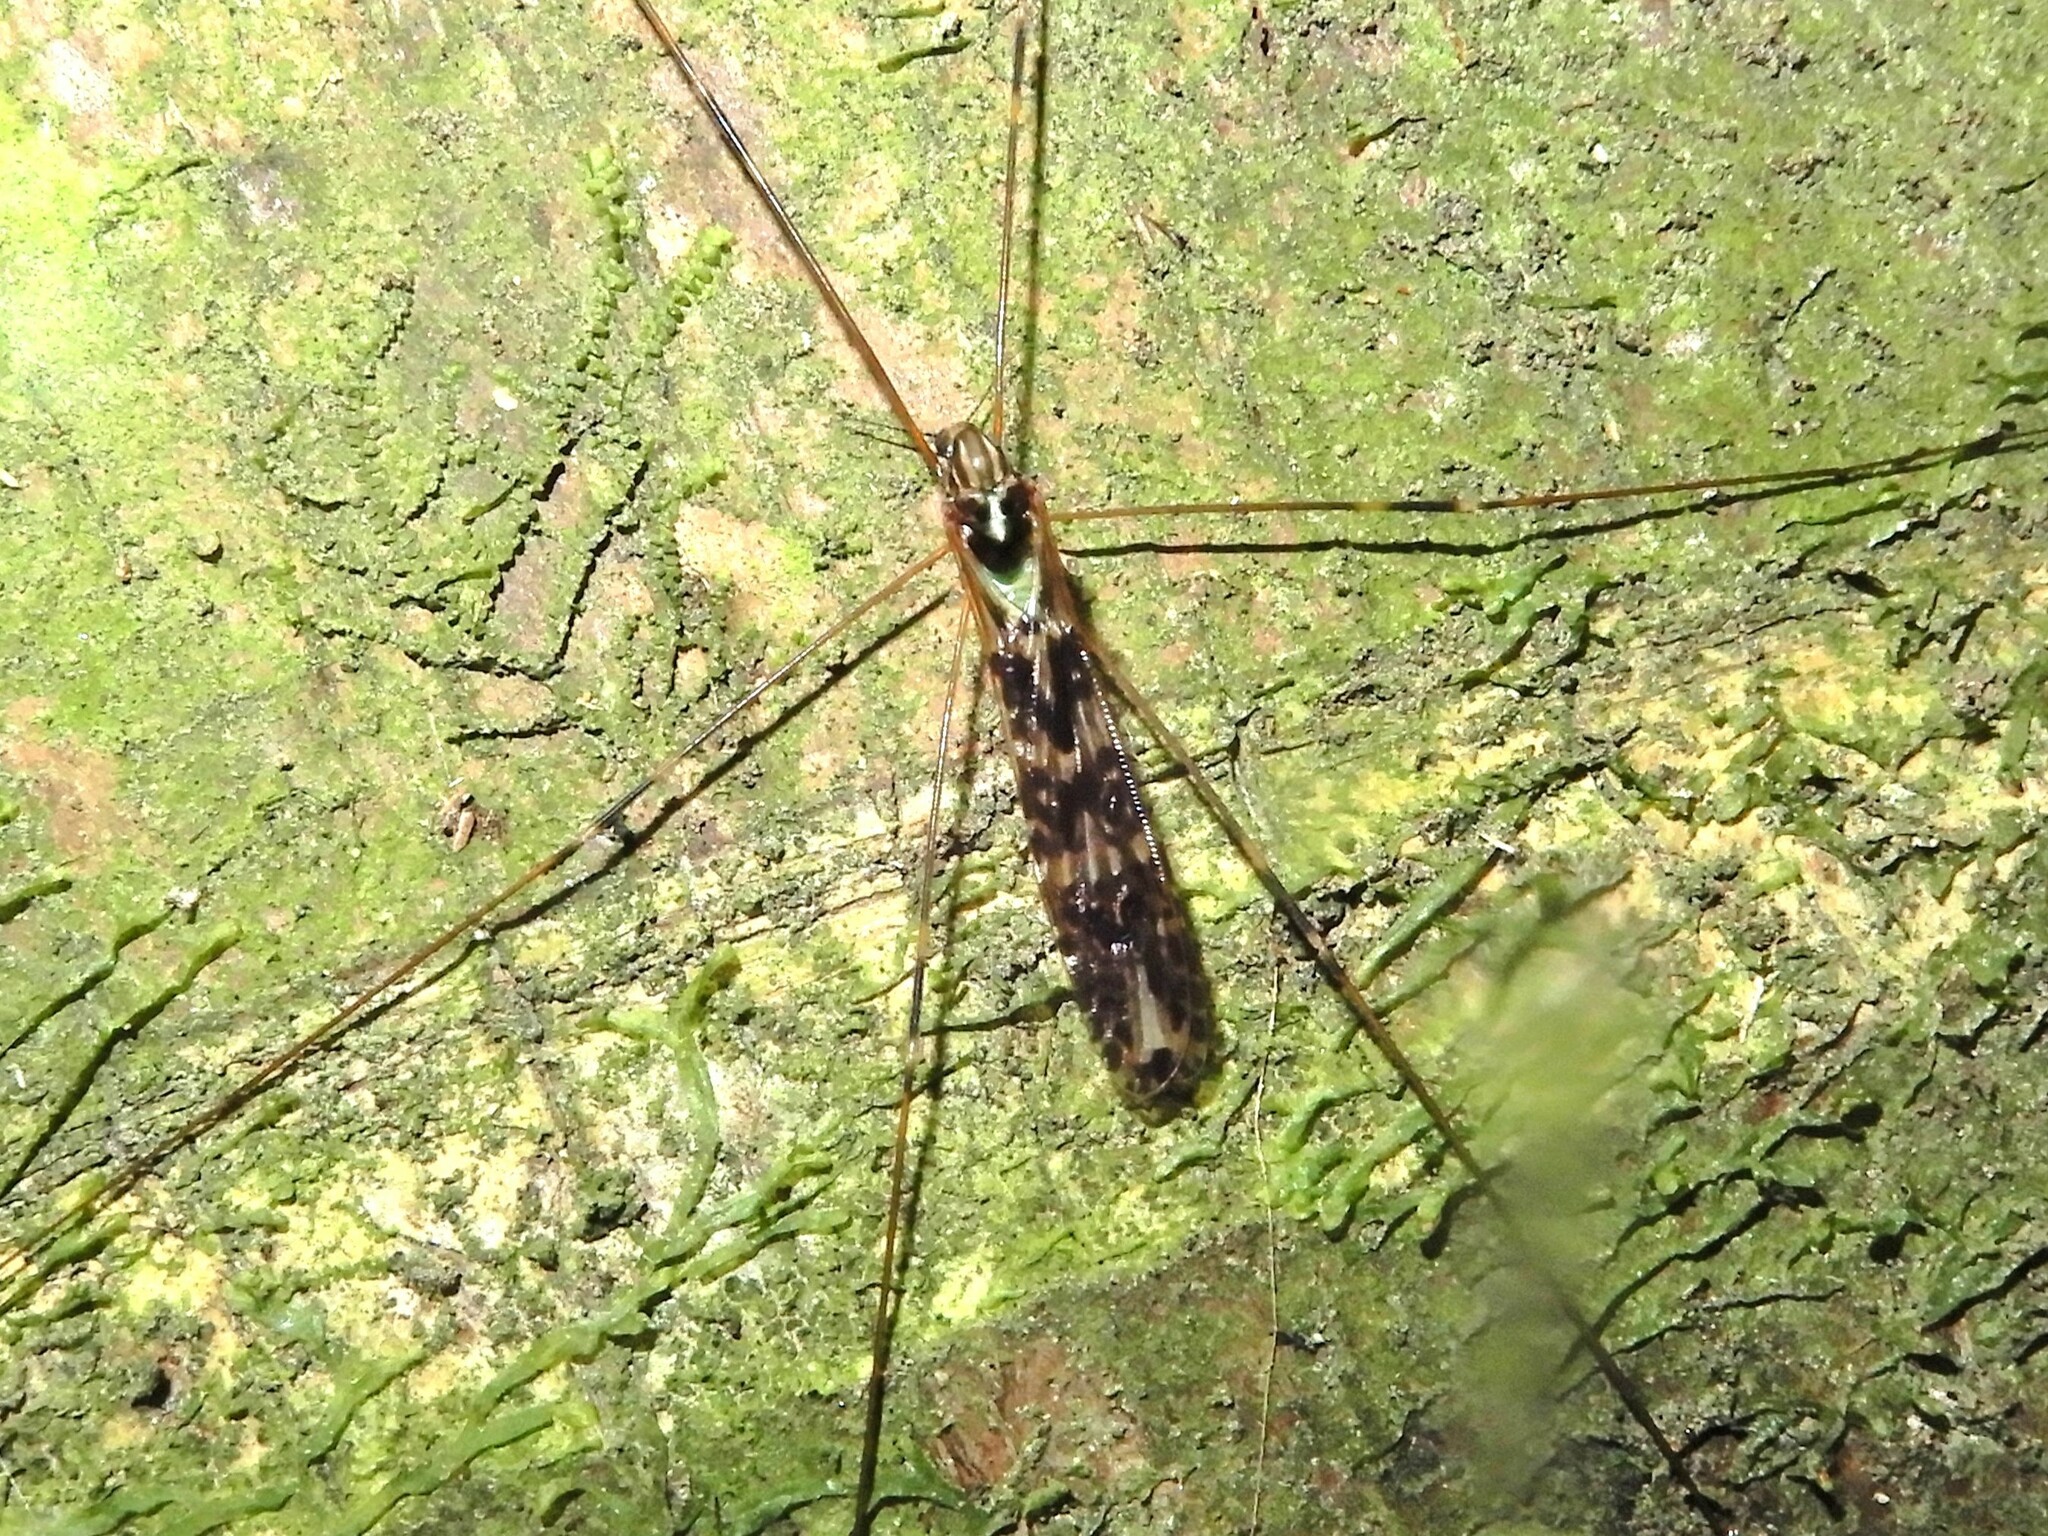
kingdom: Animalia
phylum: Arthropoda
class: Insecta
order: Diptera
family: Limoniidae
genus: Discobola
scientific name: Discobola dohrni
